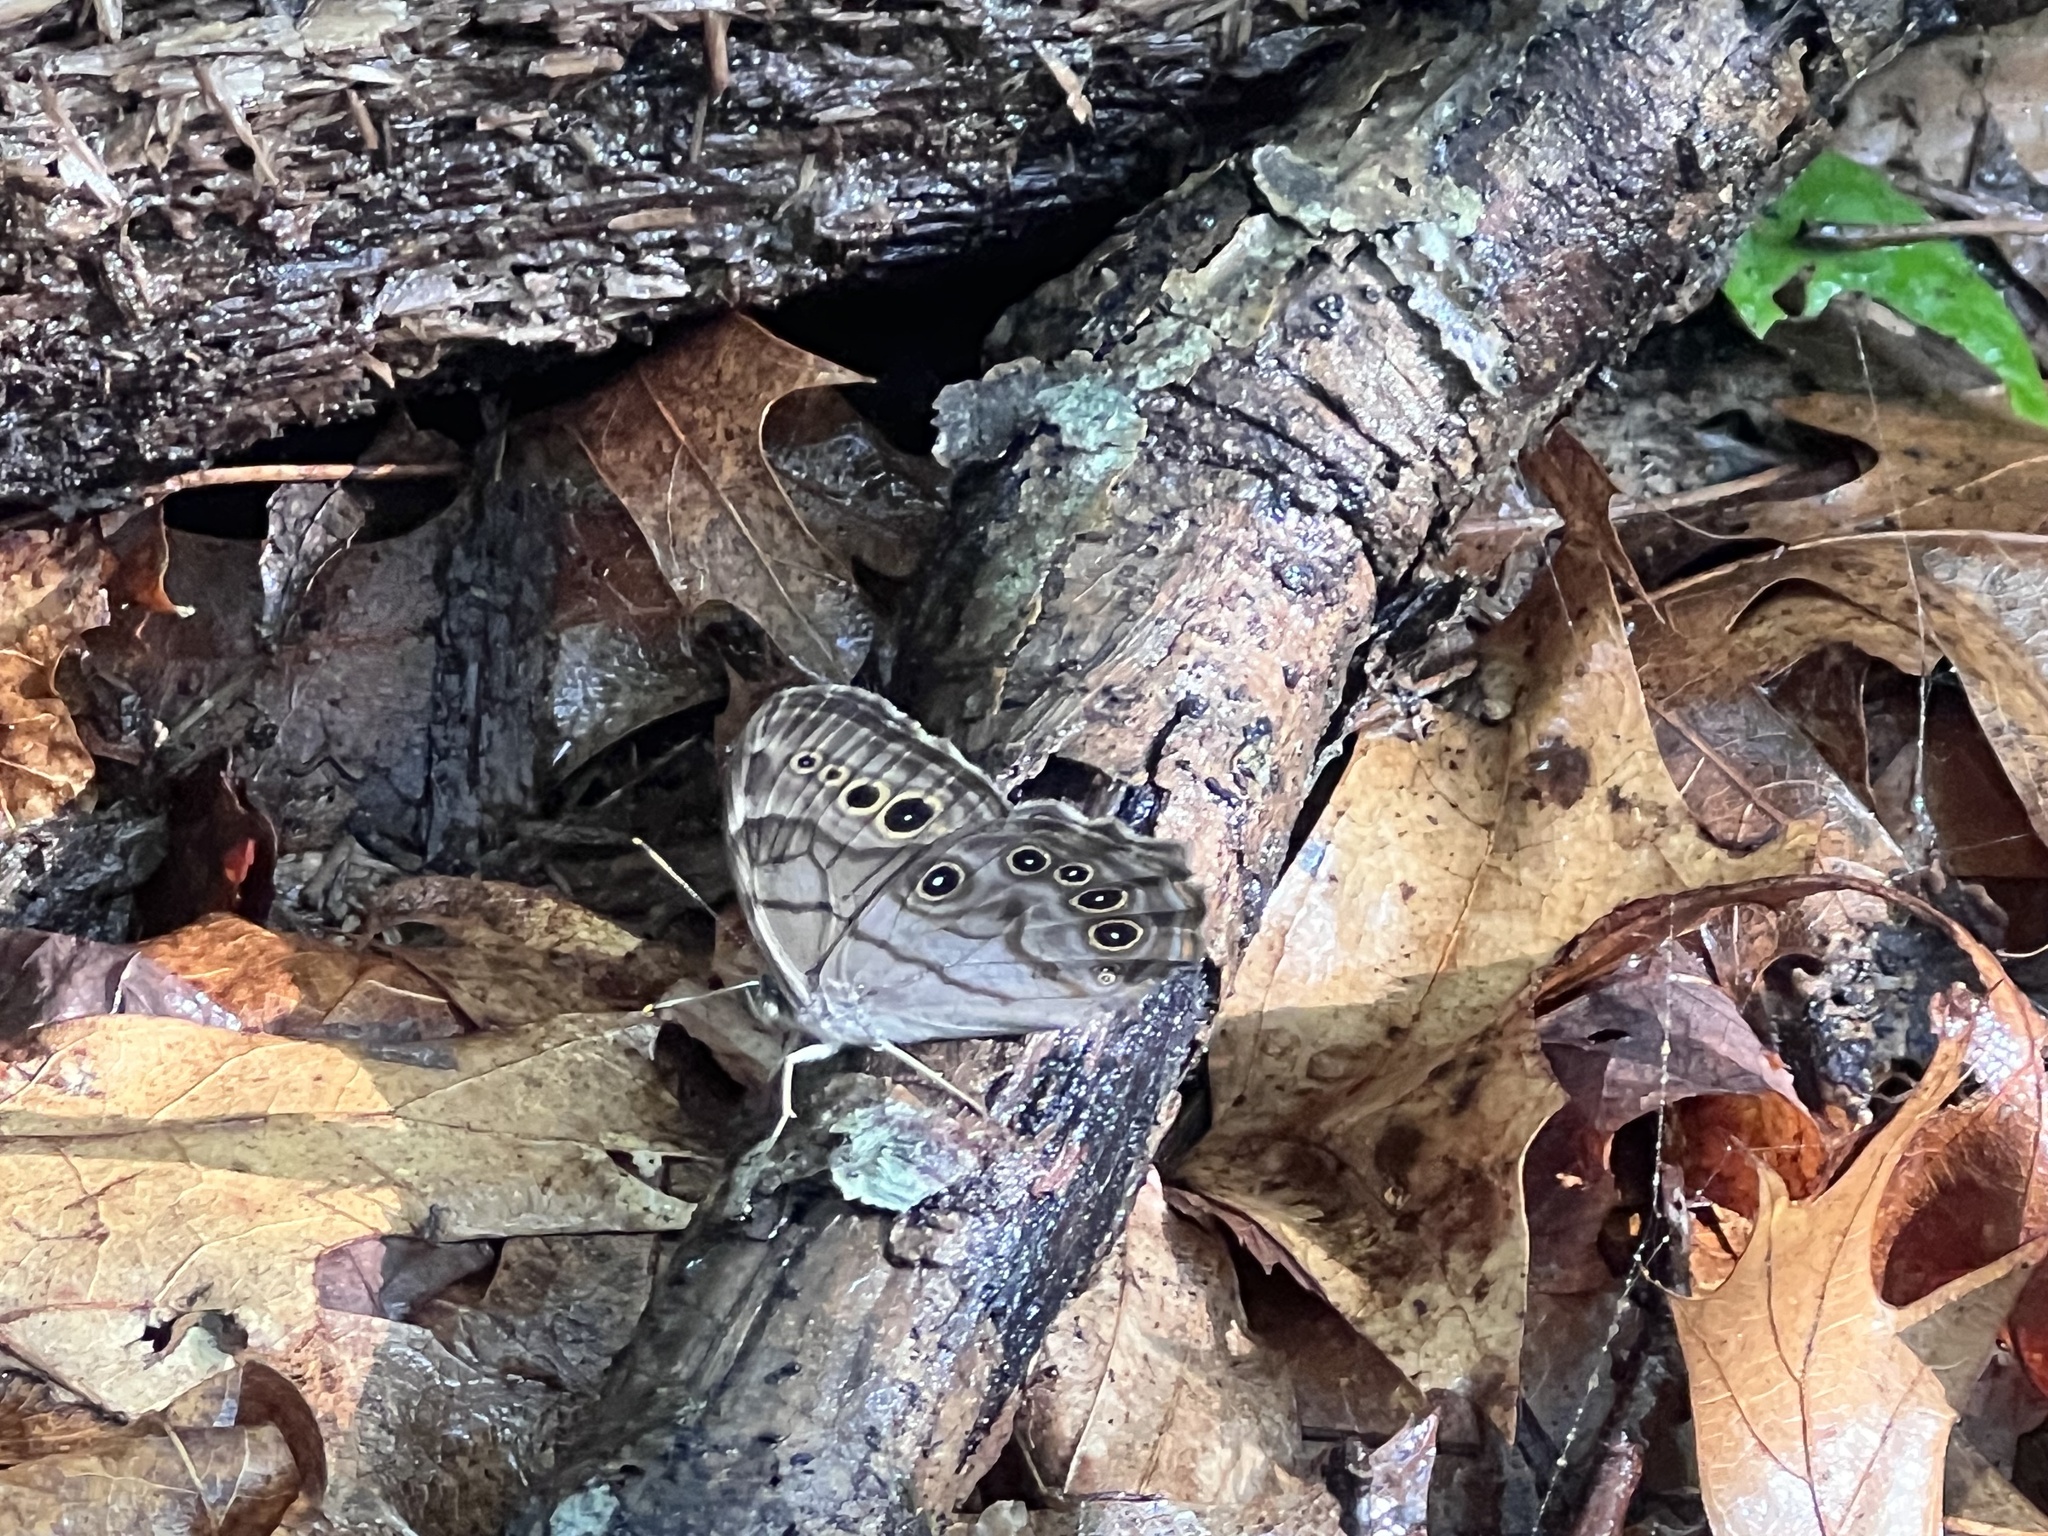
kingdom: Animalia
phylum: Arthropoda
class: Insecta
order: Lepidoptera
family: Nymphalidae
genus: Lethe
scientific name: Lethe anthedon
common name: Northern pearly-eye
